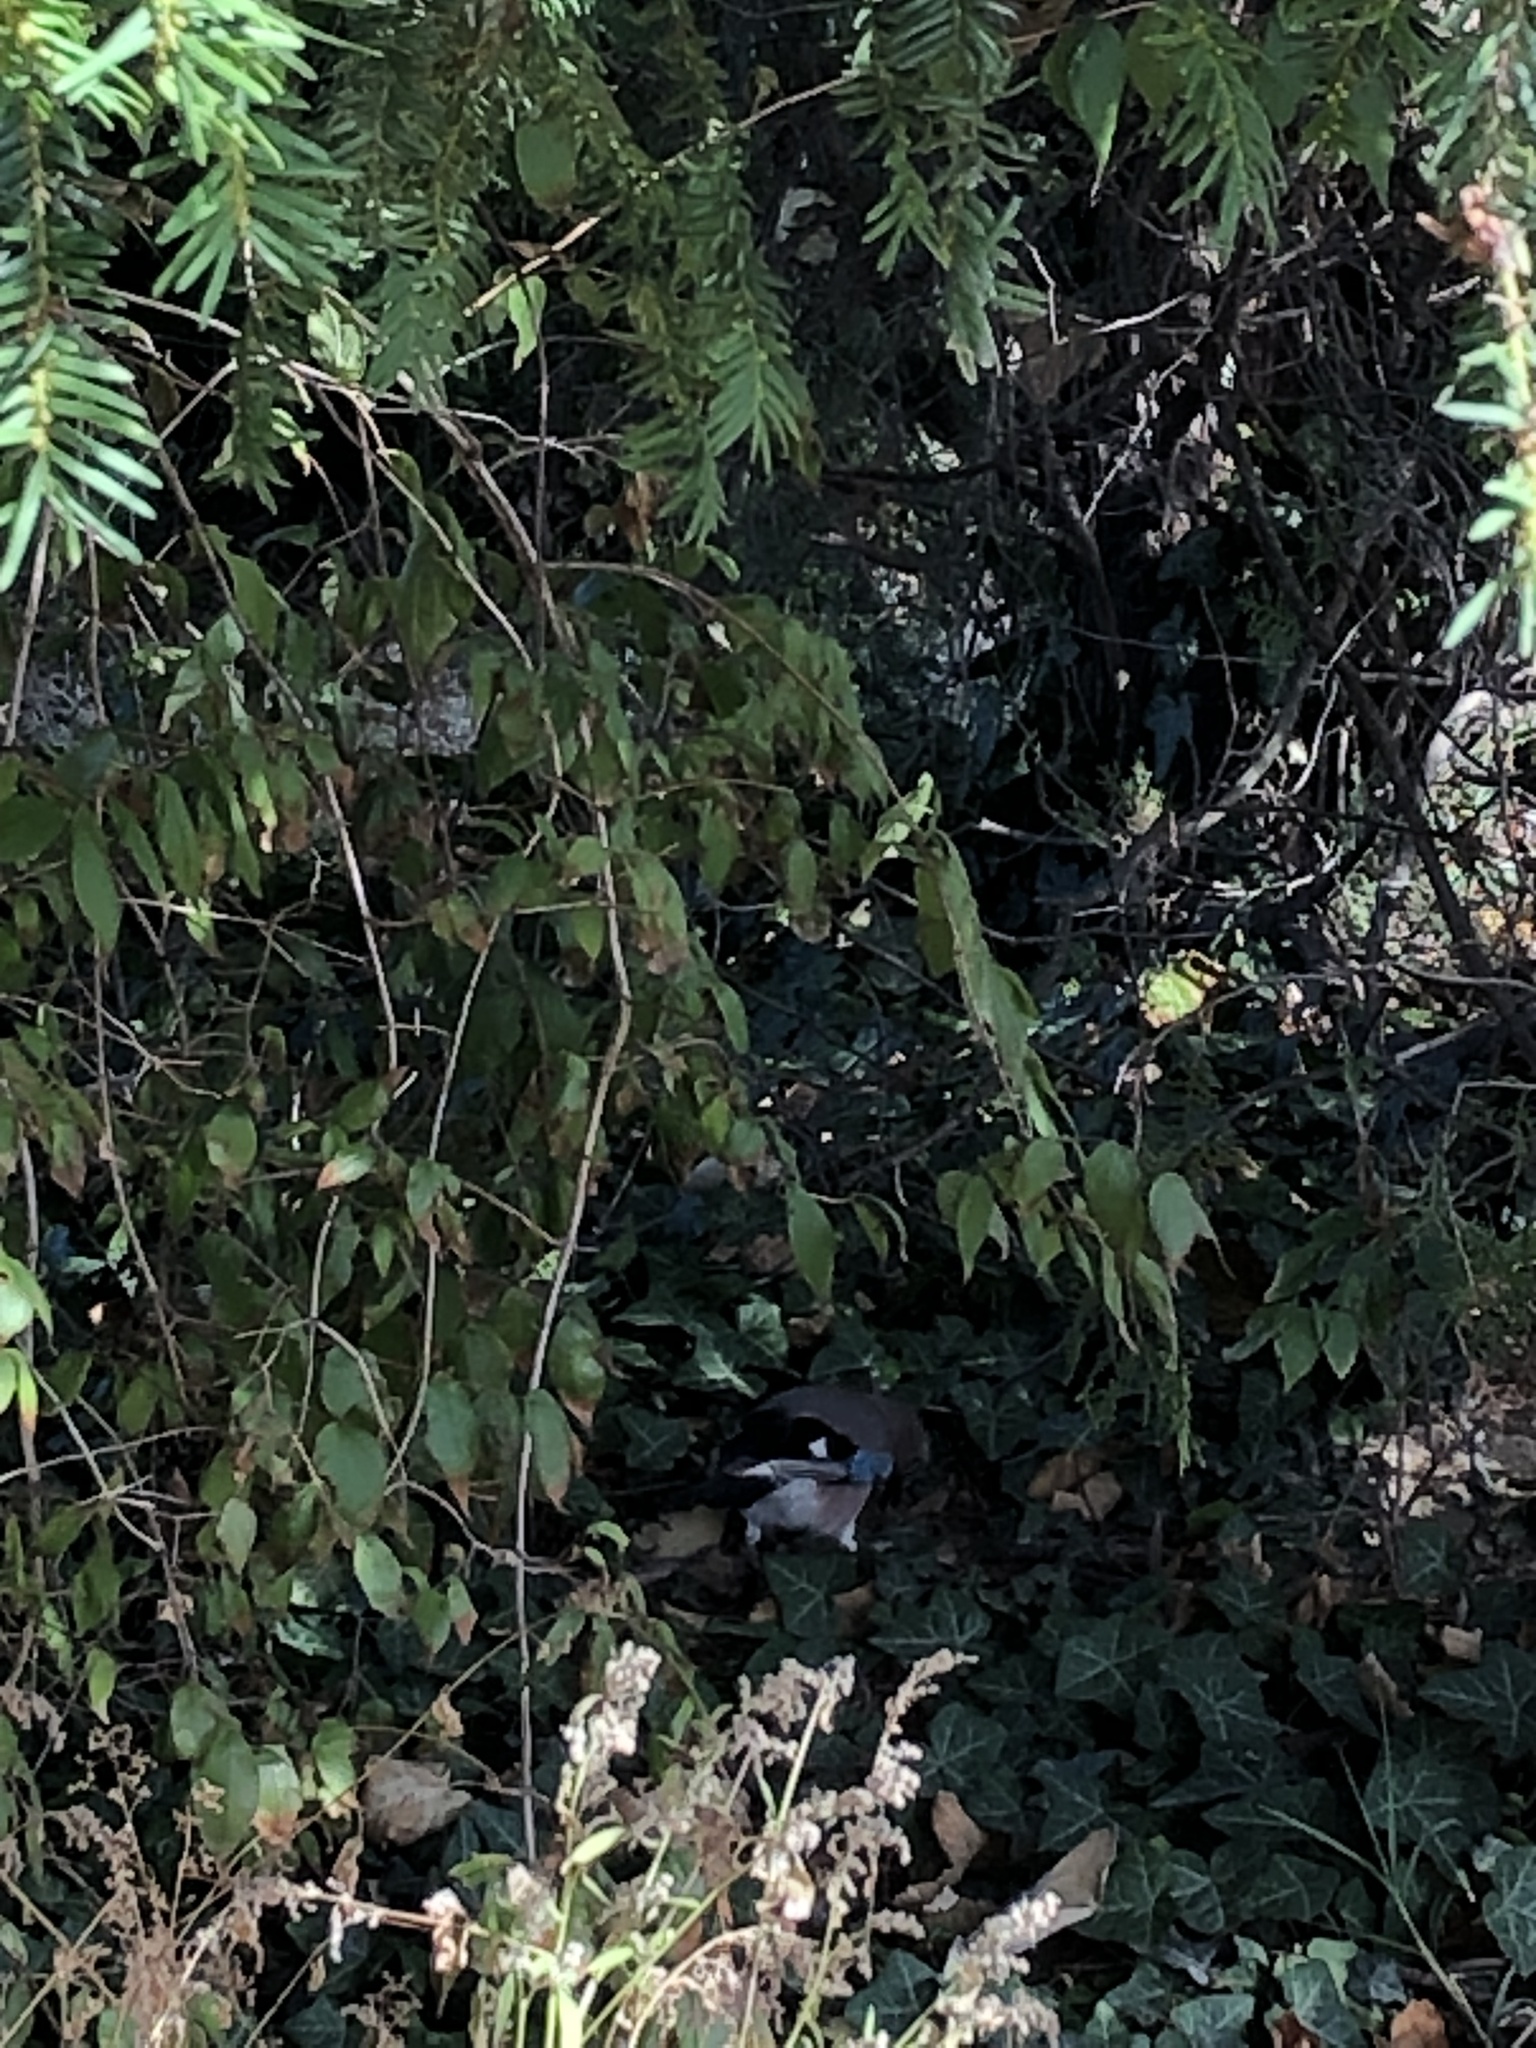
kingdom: Animalia
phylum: Chordata
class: Aves
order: Passeriformes
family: Corvidae
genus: Garrulus
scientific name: Garrulus glandarius
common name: Eurasian jay
